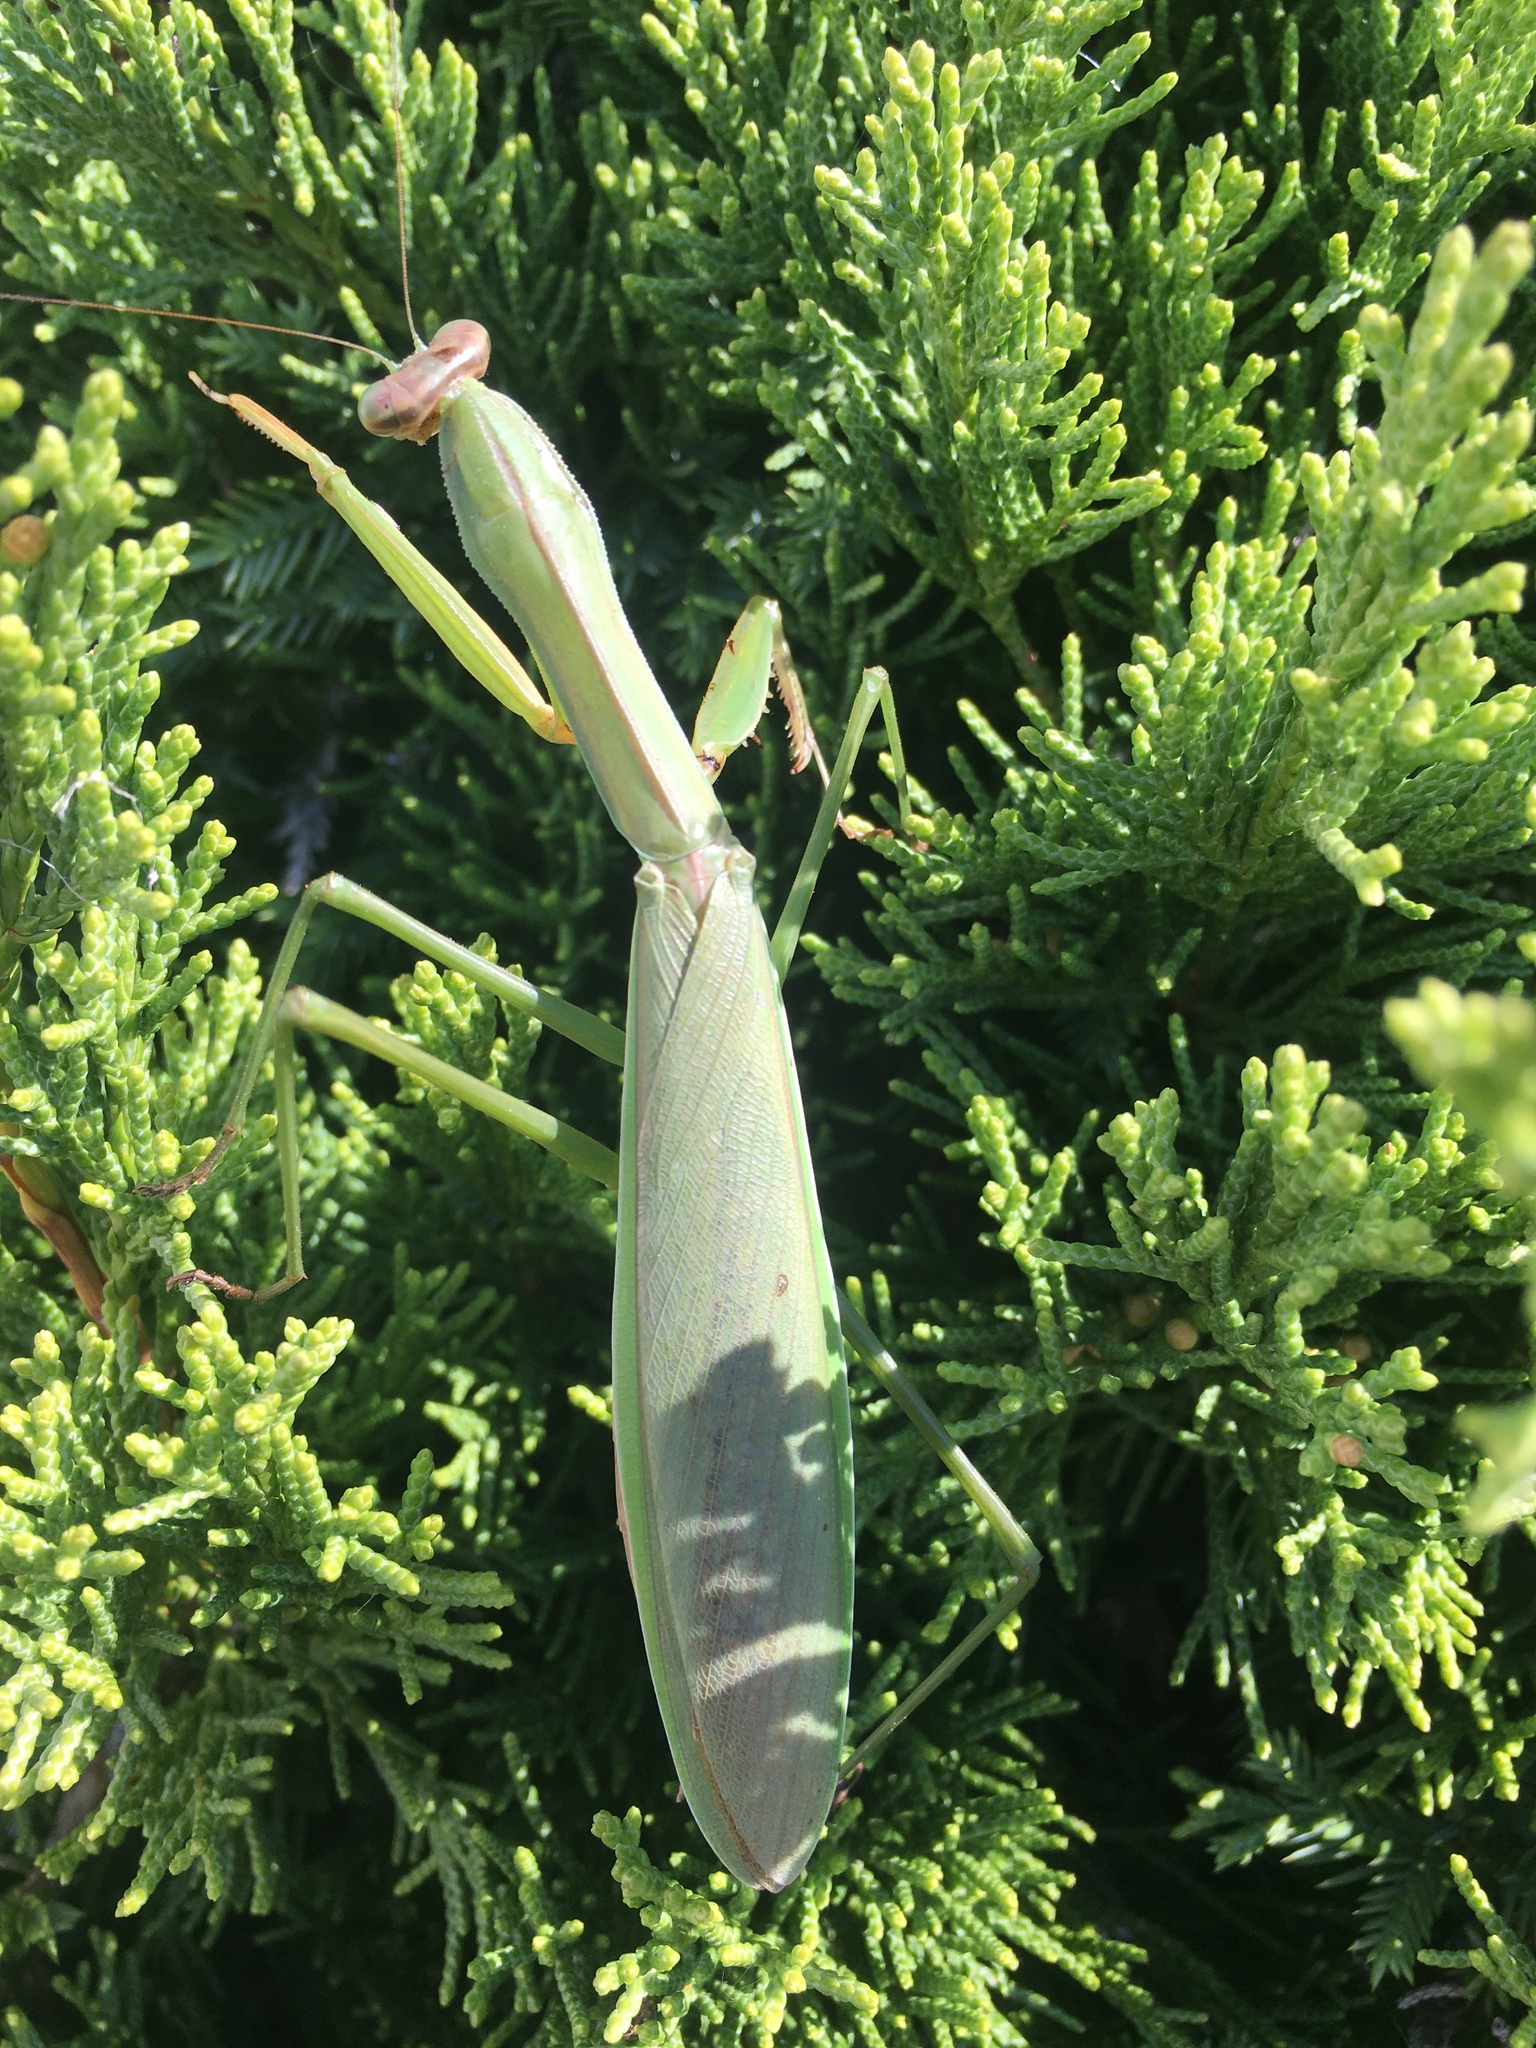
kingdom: Animalia
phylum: Arthropoda
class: Insecta
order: Mantodea
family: Mantidae
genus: Tenodera
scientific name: Tenodera sinensis
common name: Chinese mantis
